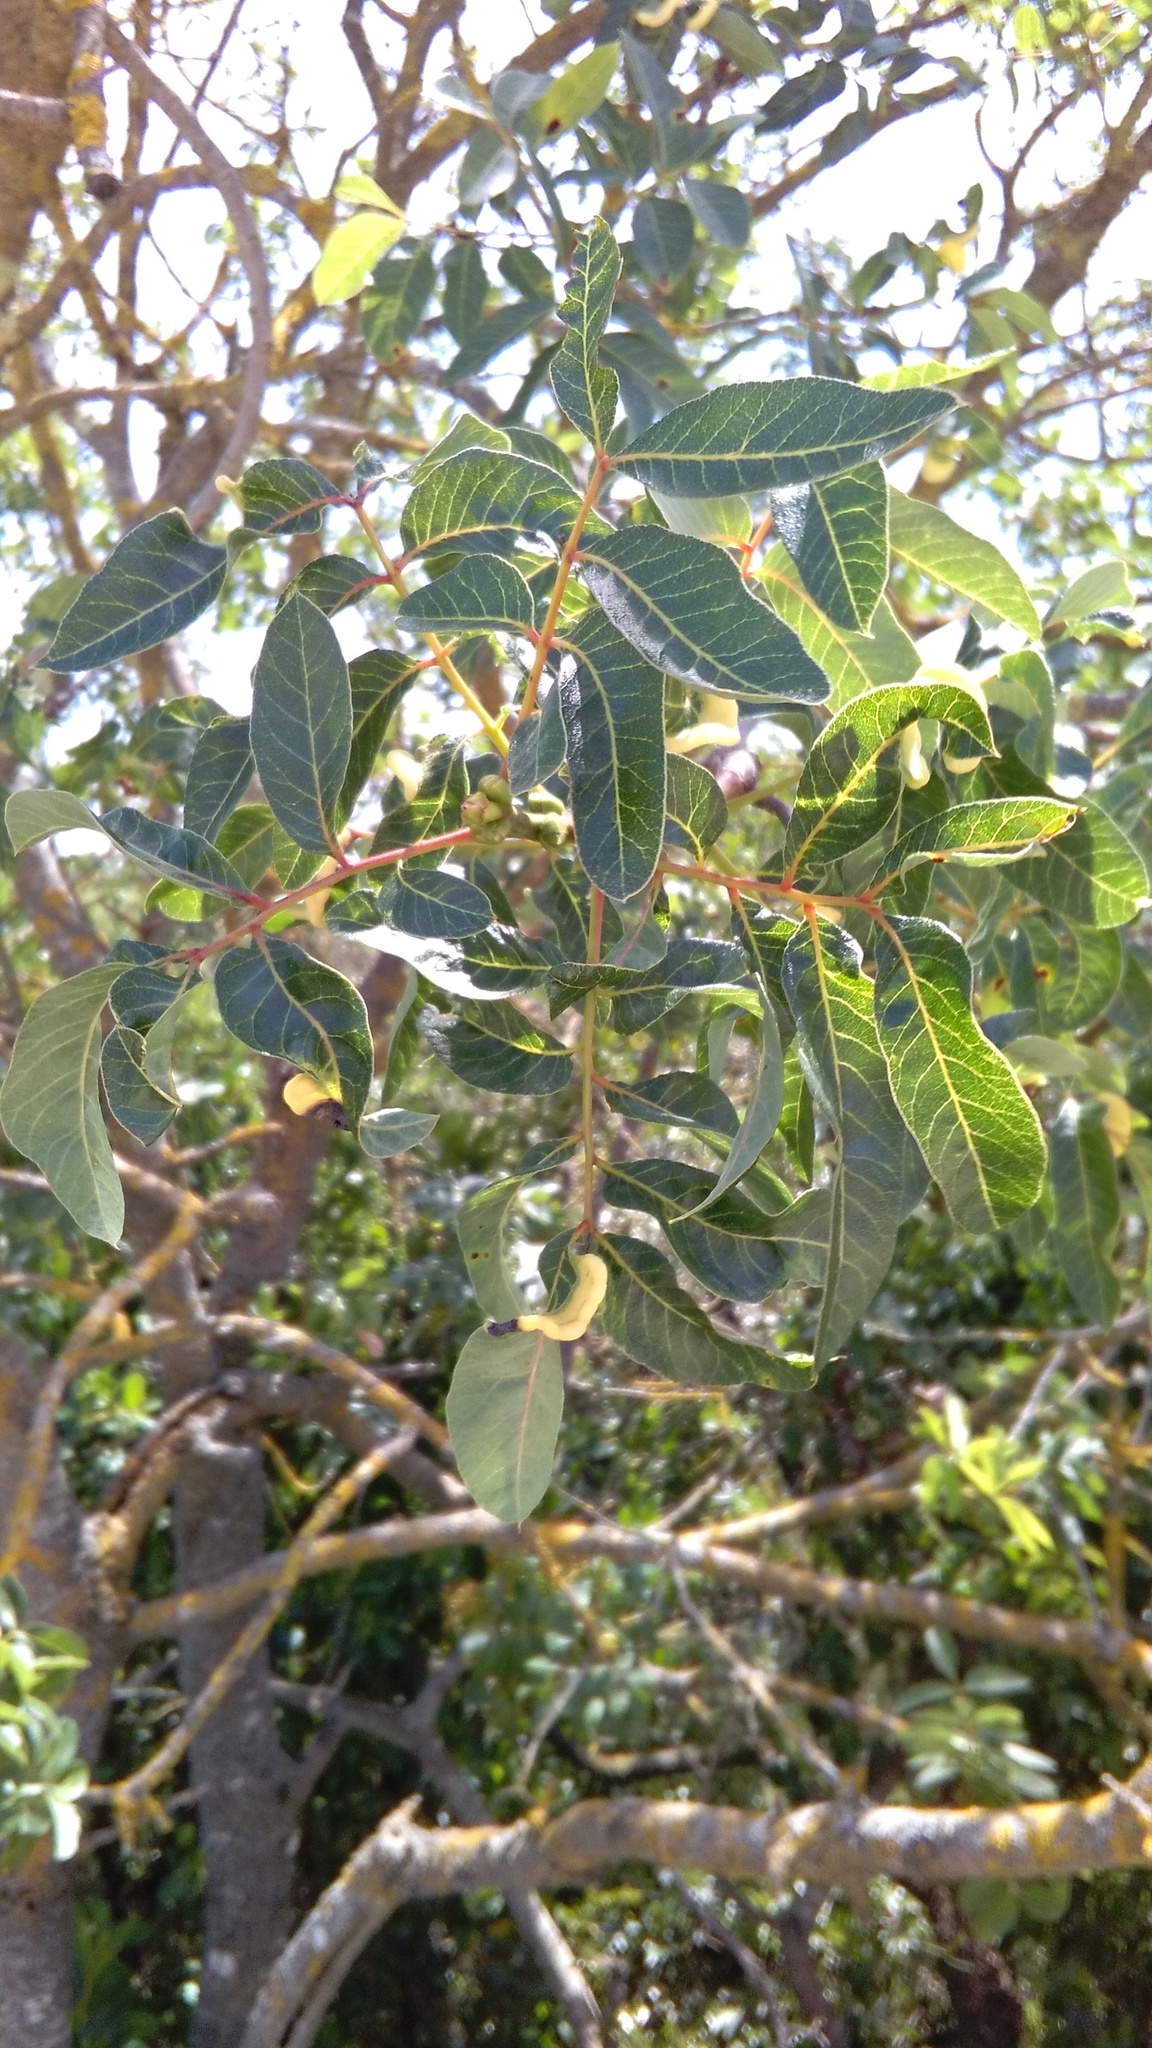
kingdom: Plantae
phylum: Tracheophyta
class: Magnoliopsida
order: Sapindales
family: Anacardiaceae
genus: Pistacia
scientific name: Pistacia terebinthus
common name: Terebinth
